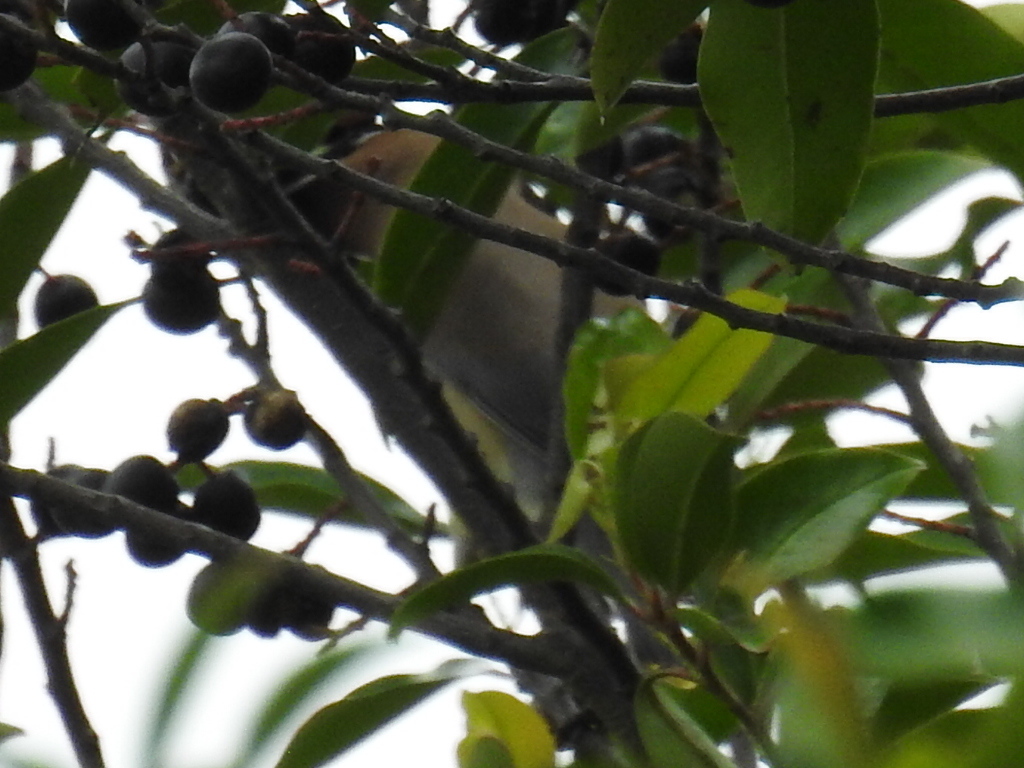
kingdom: Animalia
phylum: Chordata
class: Aves
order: Passeriformes
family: Bombycillidae
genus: Bombycilla
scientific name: Bombycilla cedrorum
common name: Cedar waxwing
